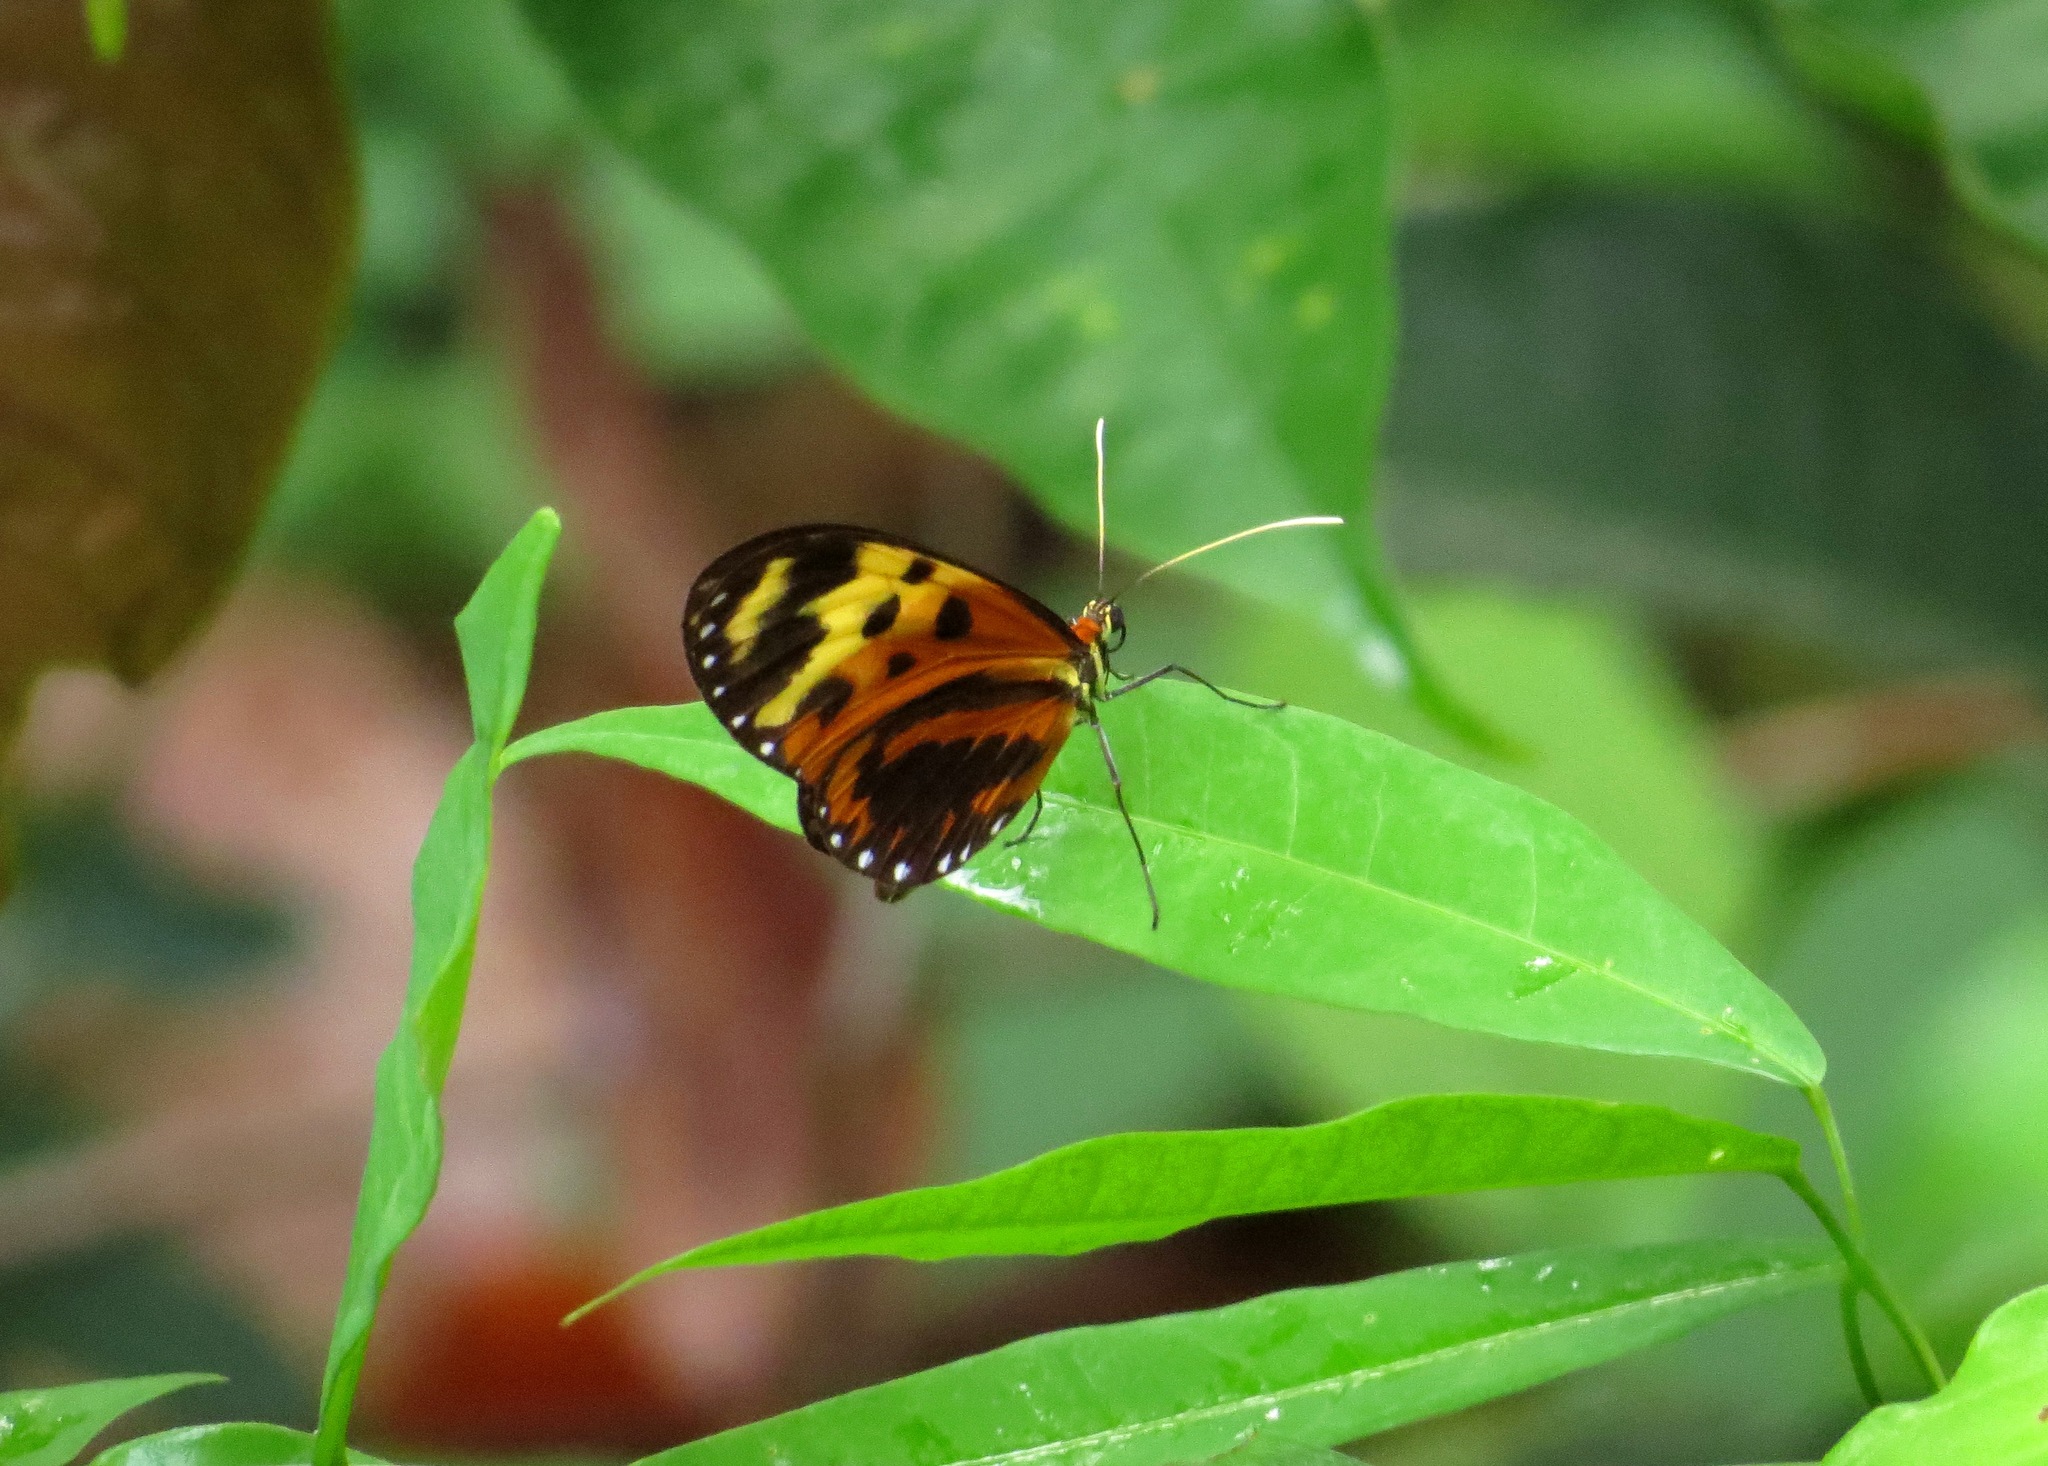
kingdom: Animalia
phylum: Arthropoda
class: Insecta
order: Lepidoptera
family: Nymphalidae
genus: Mechanitis
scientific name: Mechanitis mazaeus
